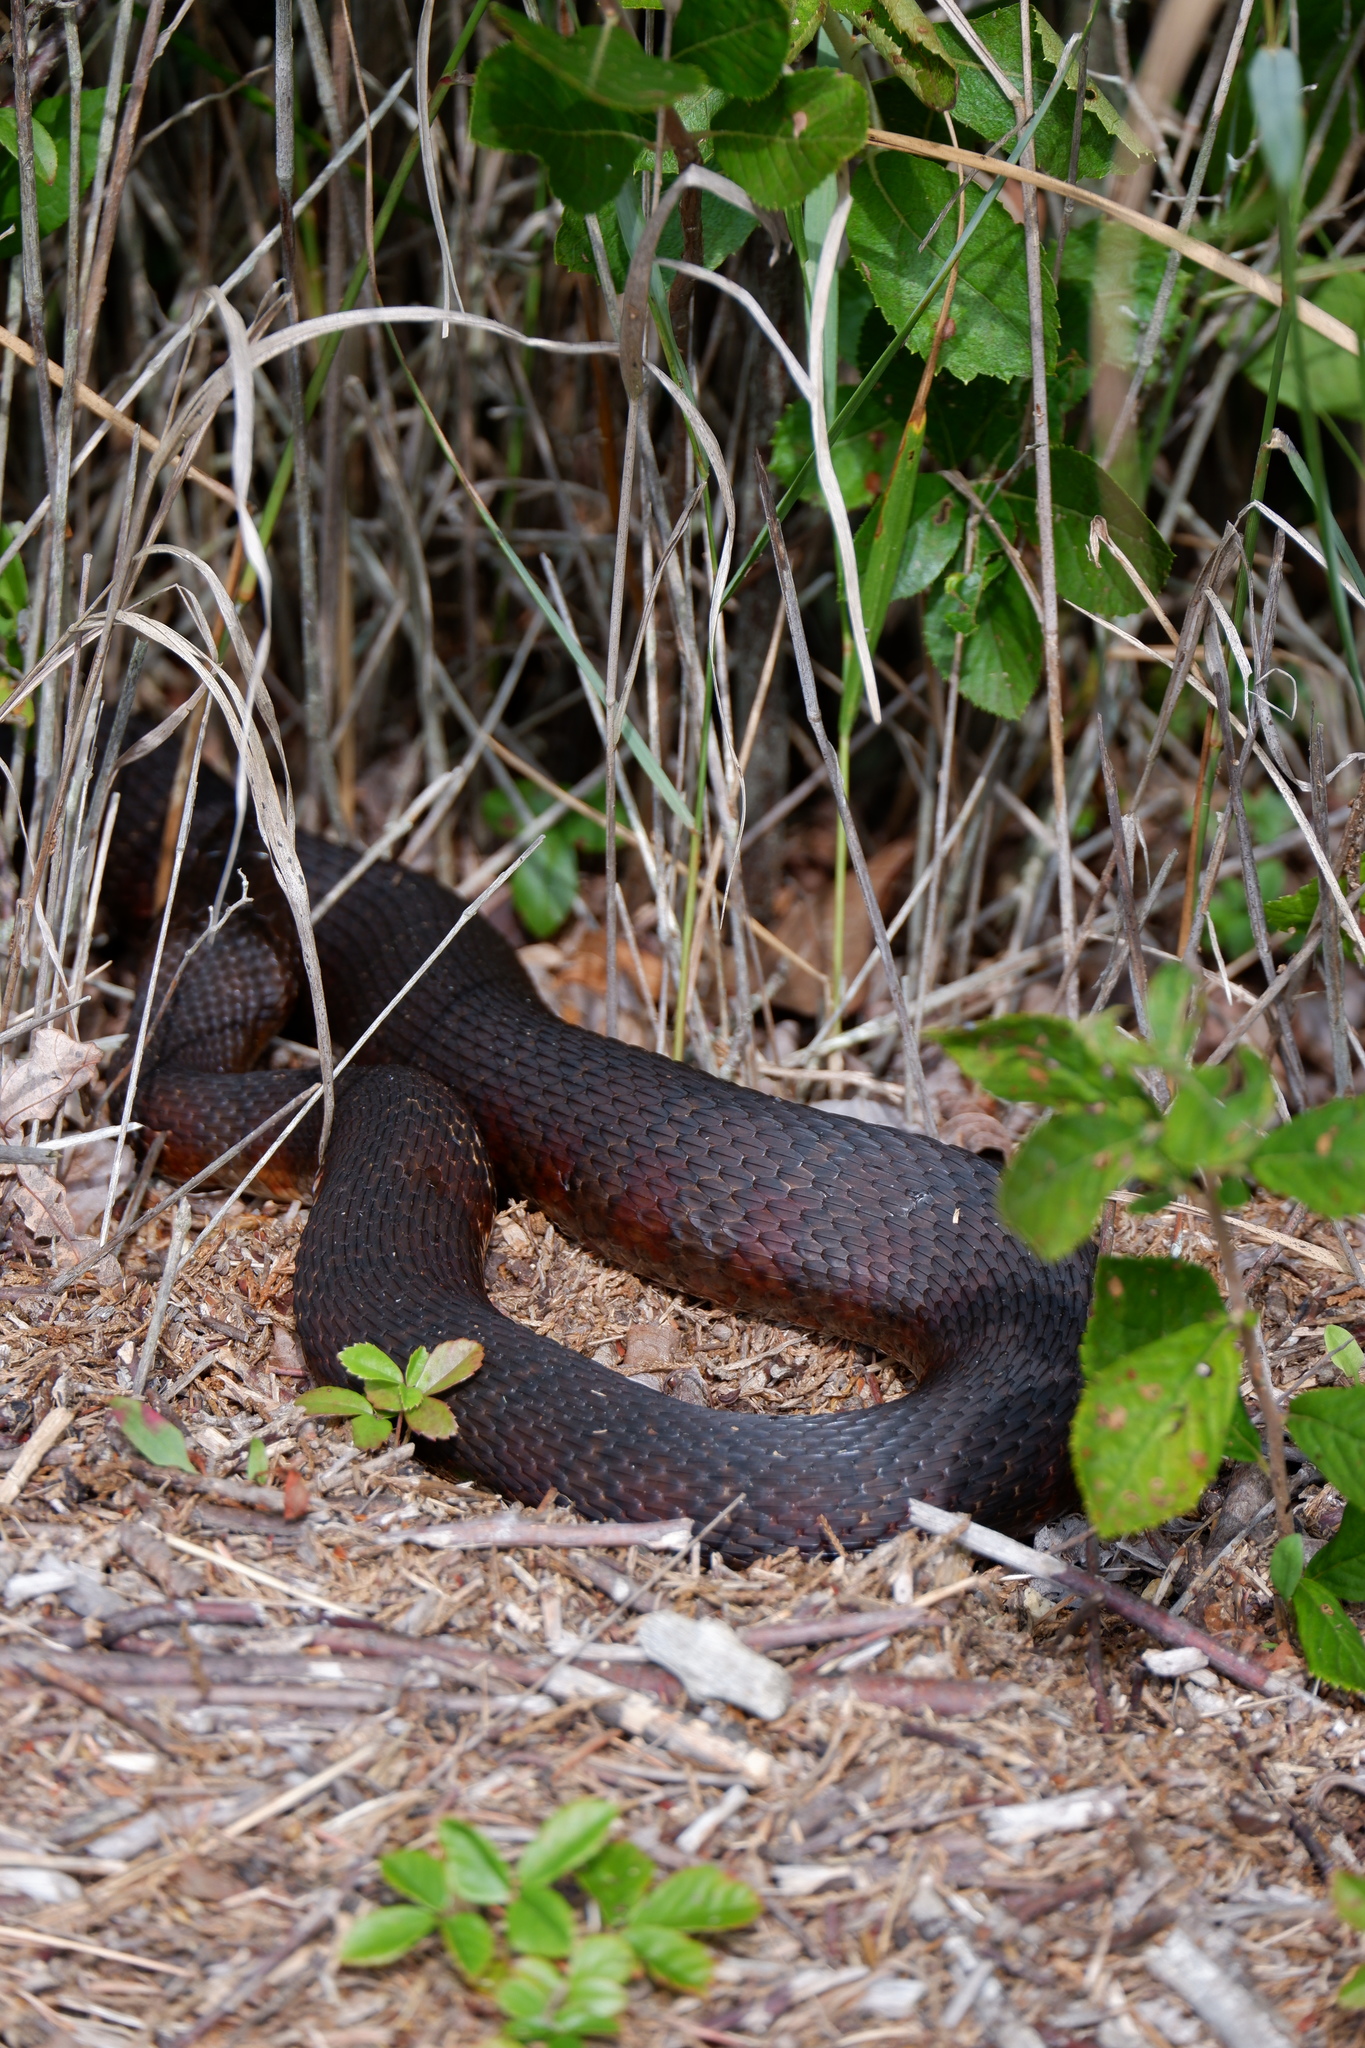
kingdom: Animalia
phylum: Chordata
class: Squamata
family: Colubridae
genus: Nerodia
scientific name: Nerodia sipedon
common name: Northern water snake
